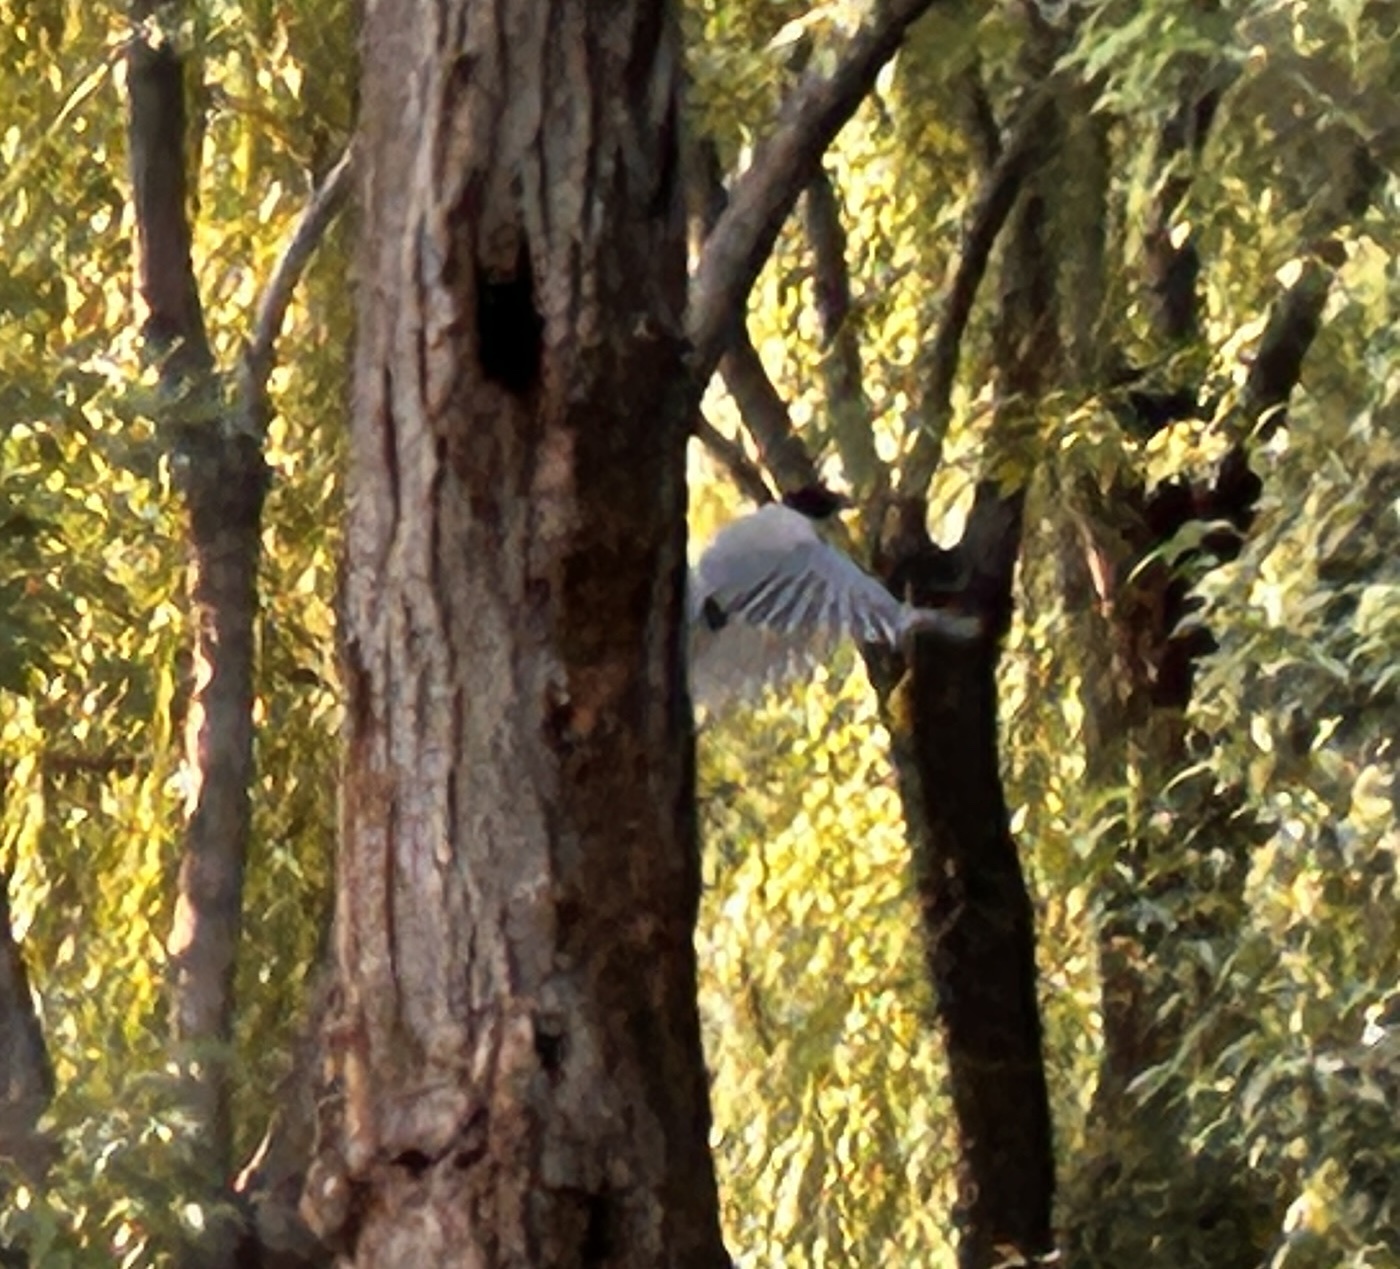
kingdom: Animalia
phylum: Chordata
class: Aves
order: Passeriformes
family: Corvidae
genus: Cyanopica
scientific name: Cyanopica cyanus
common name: Azure-winged magpie
